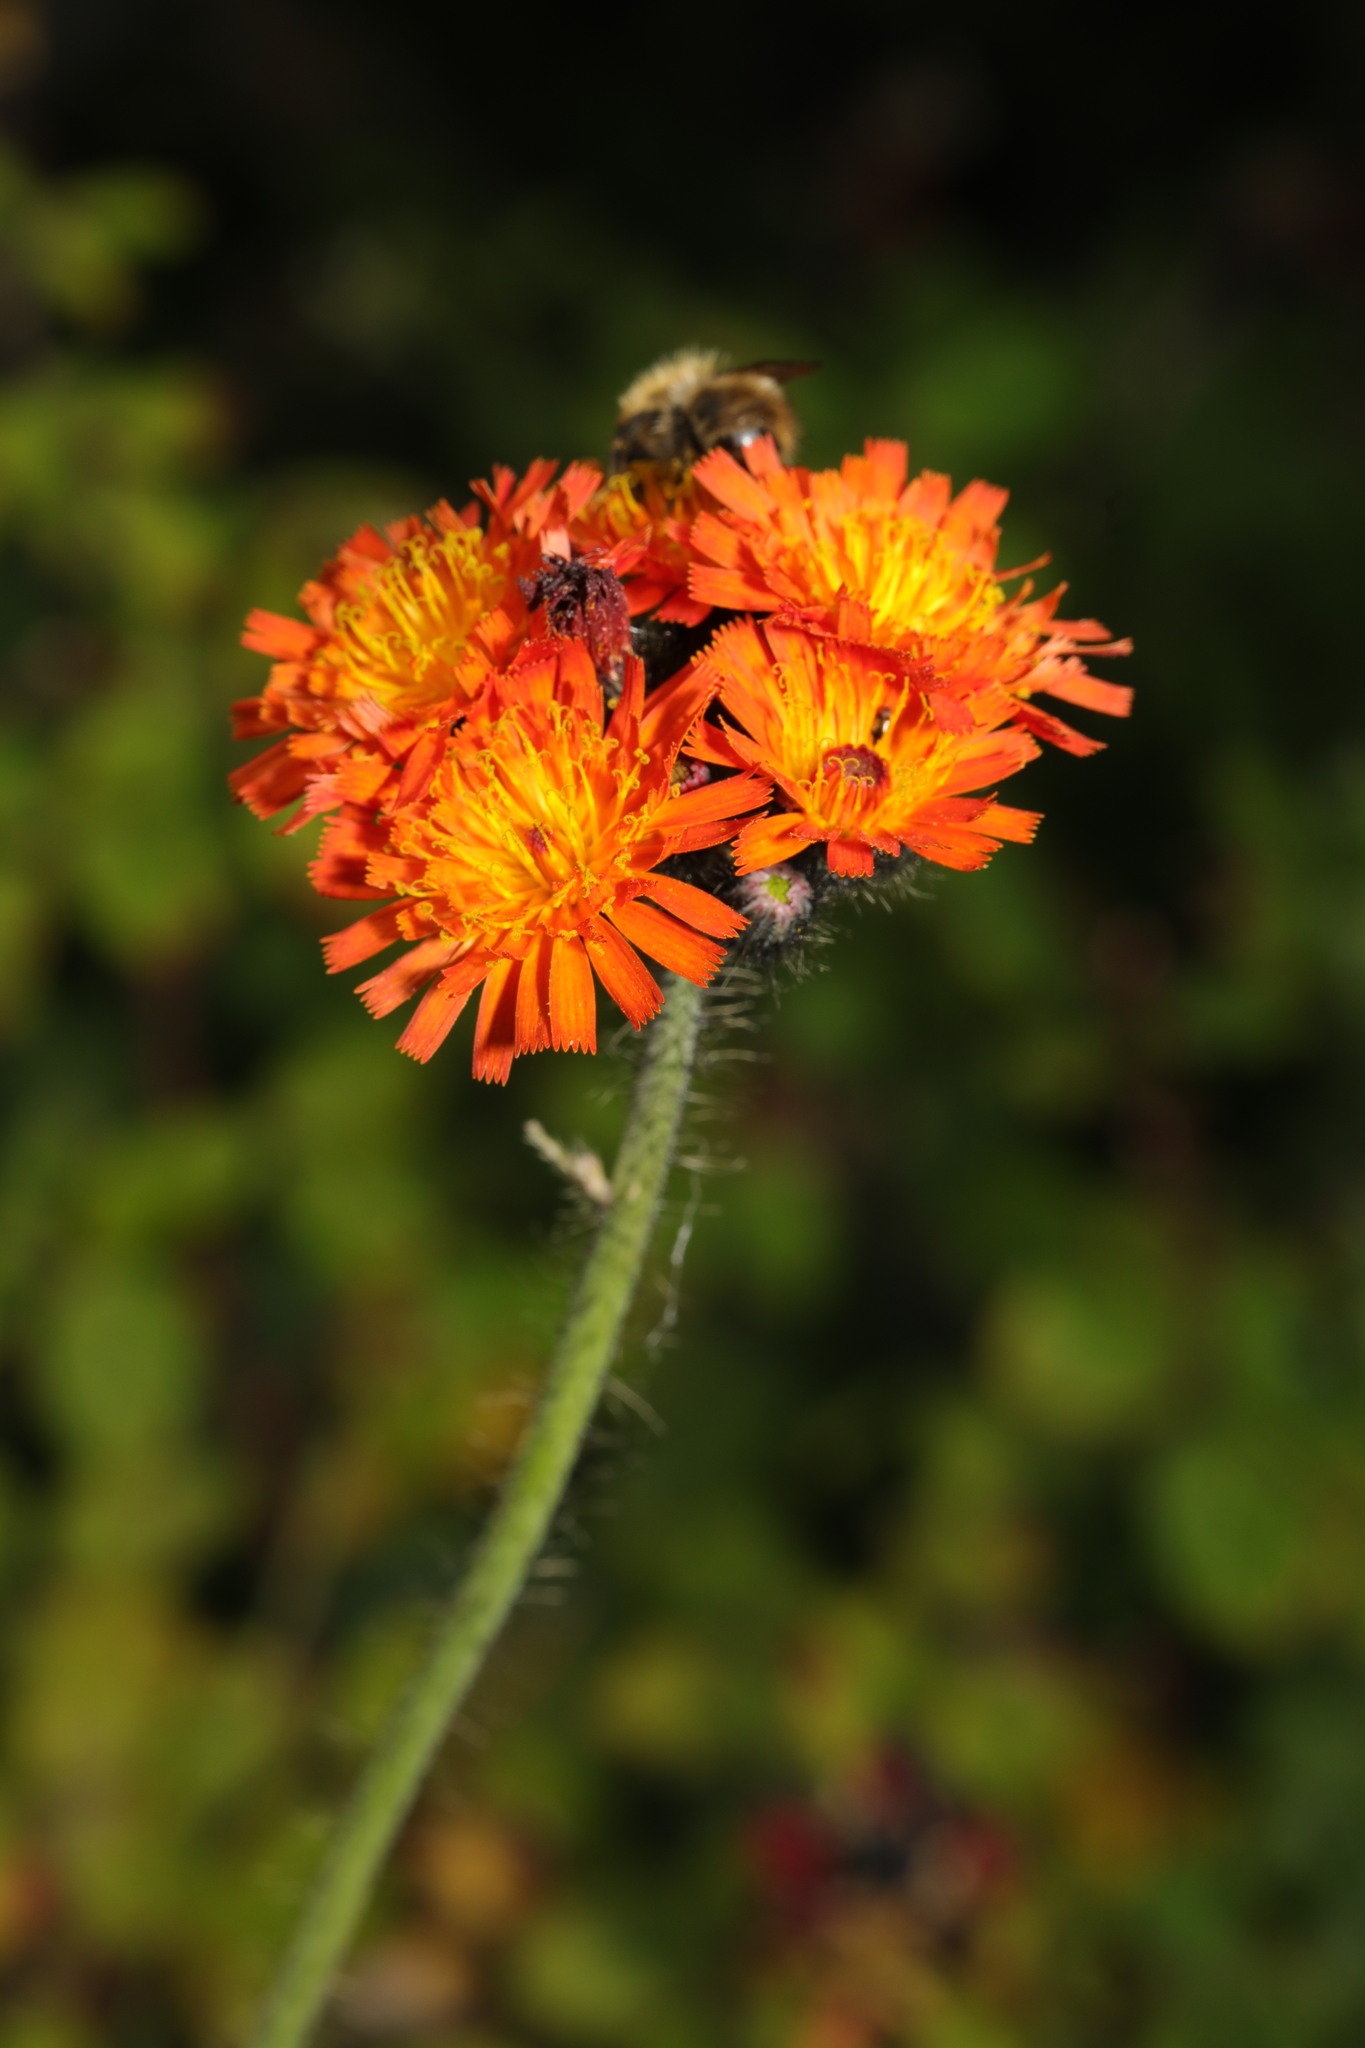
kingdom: Plantae
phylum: Tracheophyta
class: Magnoliopsida
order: Asterales
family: Asteraceae
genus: Pilosella
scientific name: Pilosella aurantiaca
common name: Fox-and-cubs
